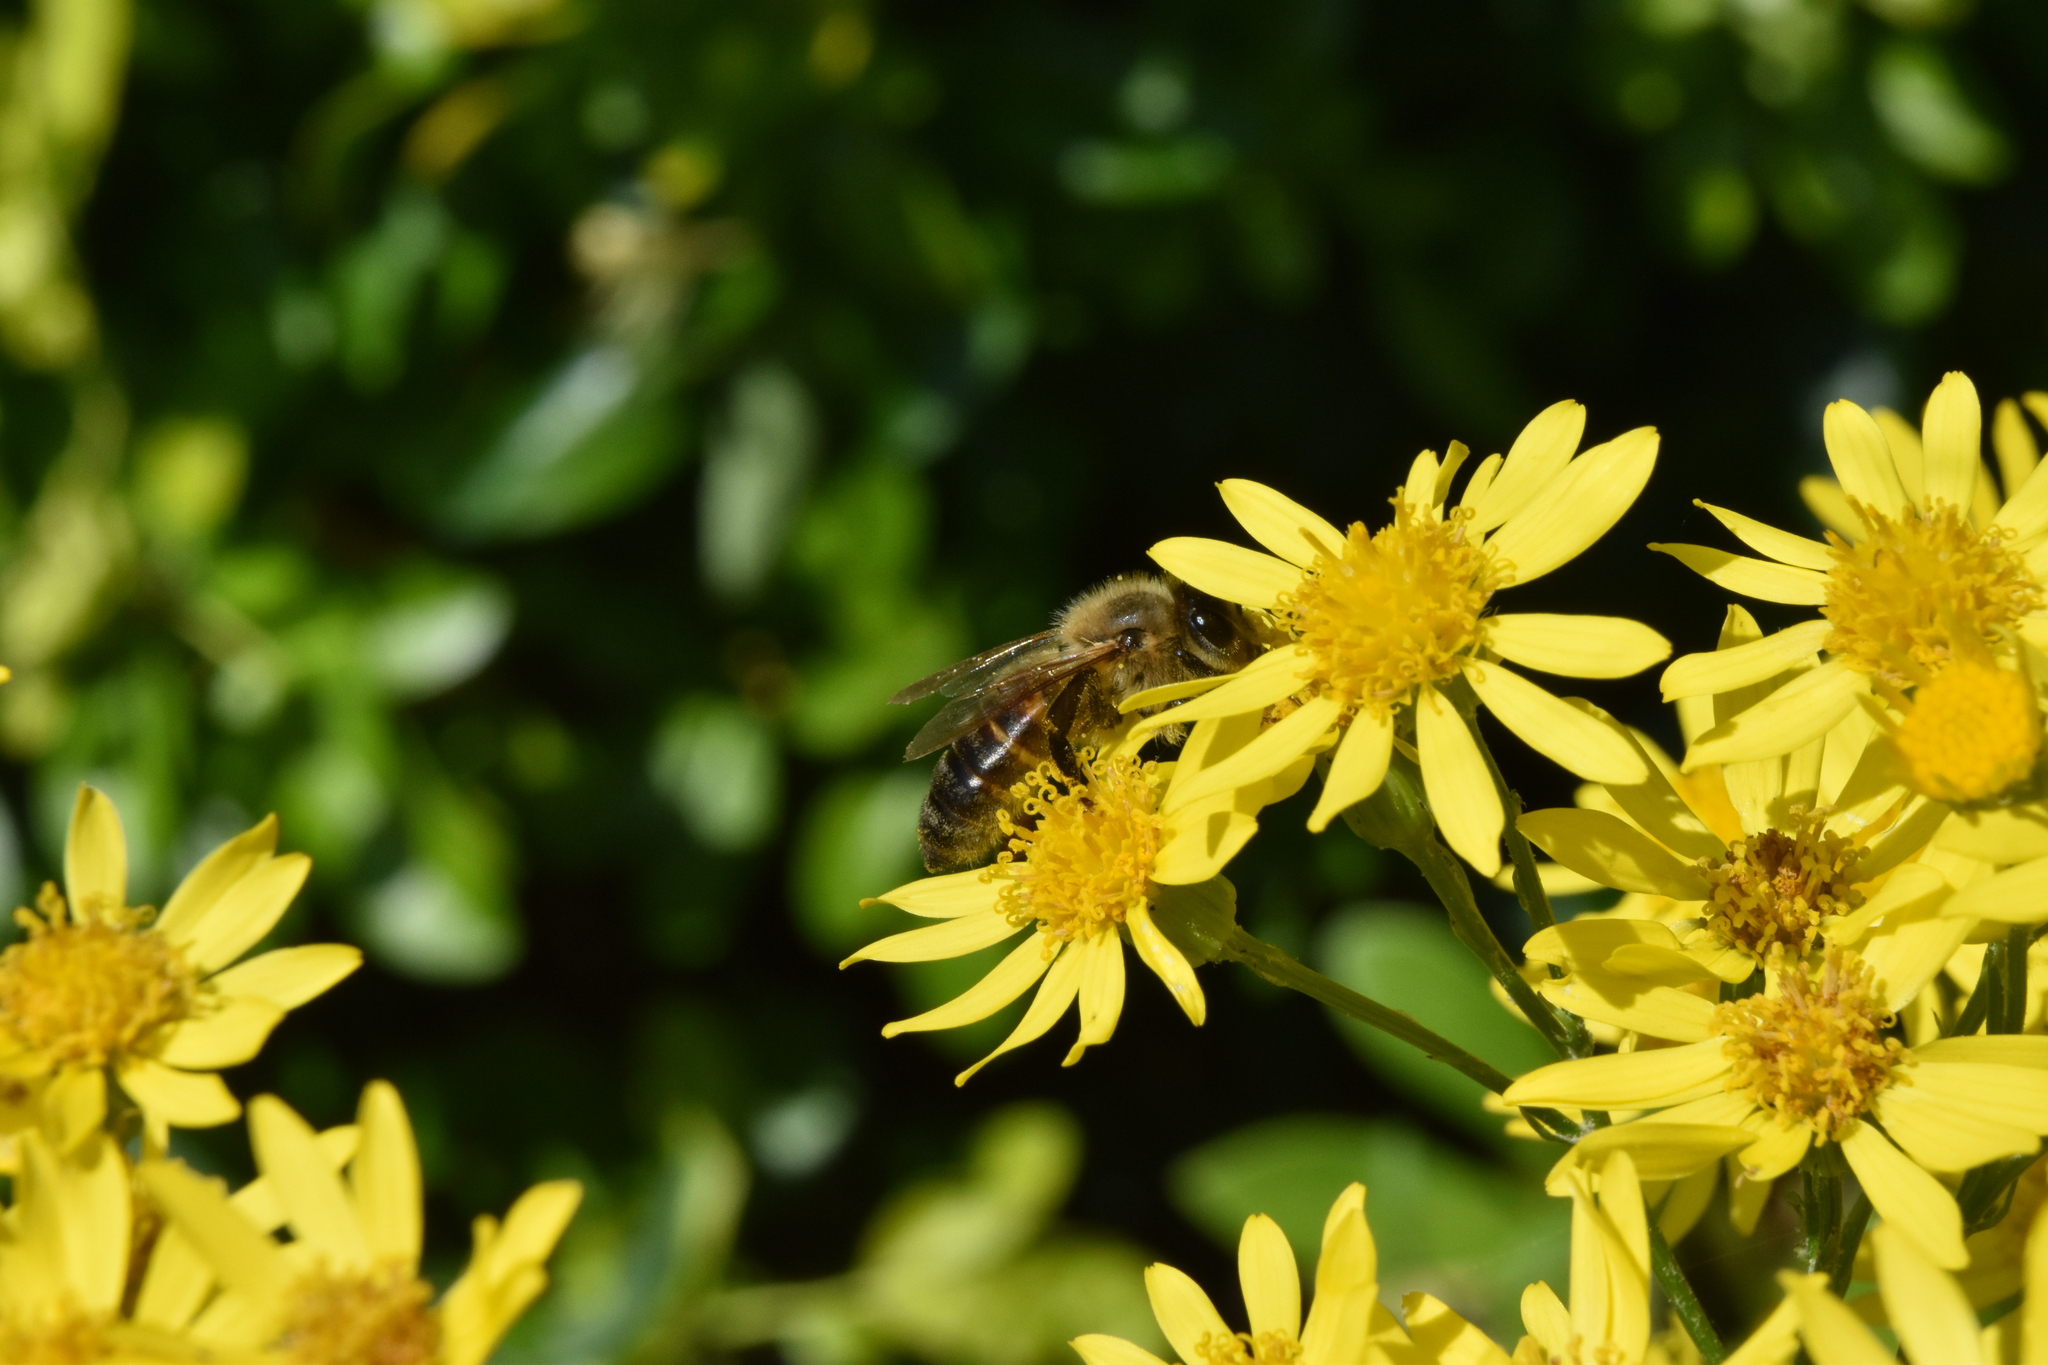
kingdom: Animalia
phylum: Arthropoda
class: Insecta
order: Hymenoptera
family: Apidae
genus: Apis
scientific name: Apis mellifera
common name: Honey bee
